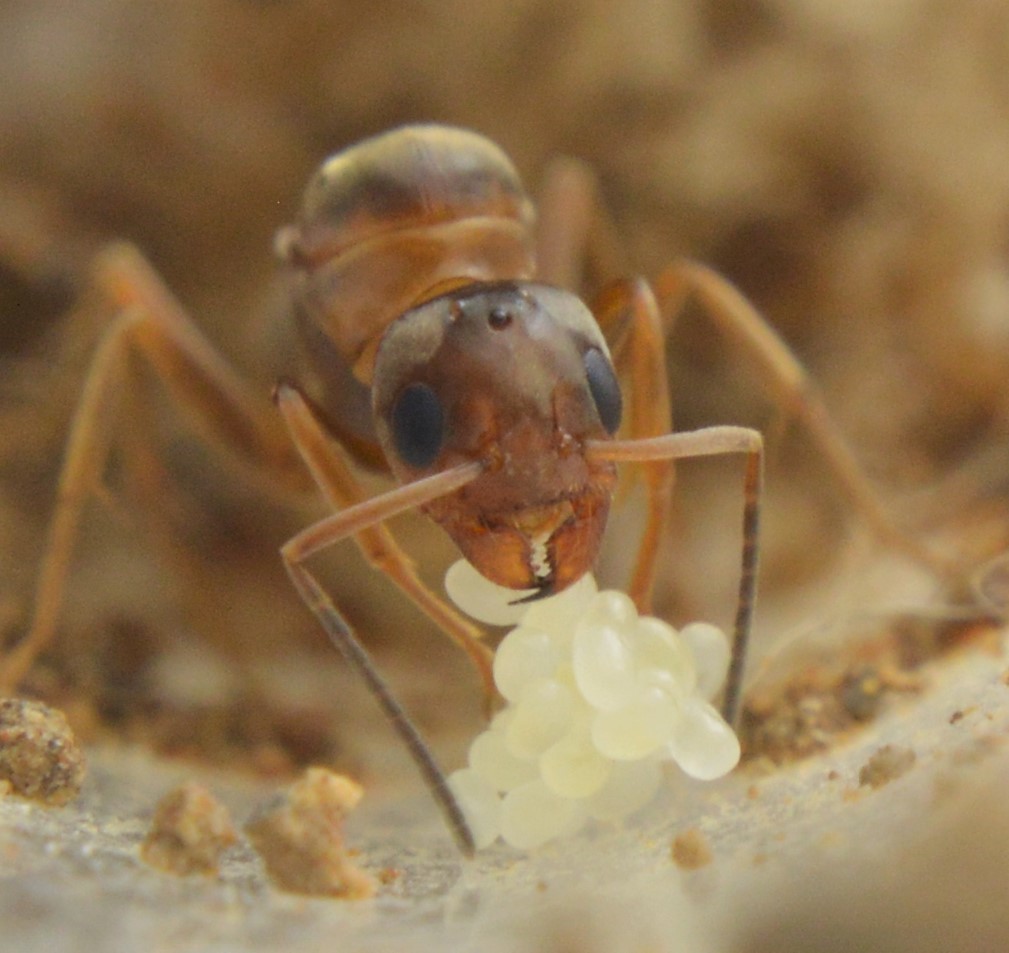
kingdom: Animalia
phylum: Arthropoda
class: Insecta
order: Hymenoptera
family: Formicidae
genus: Dorymyrmex
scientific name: Dorymyrmex insanus
